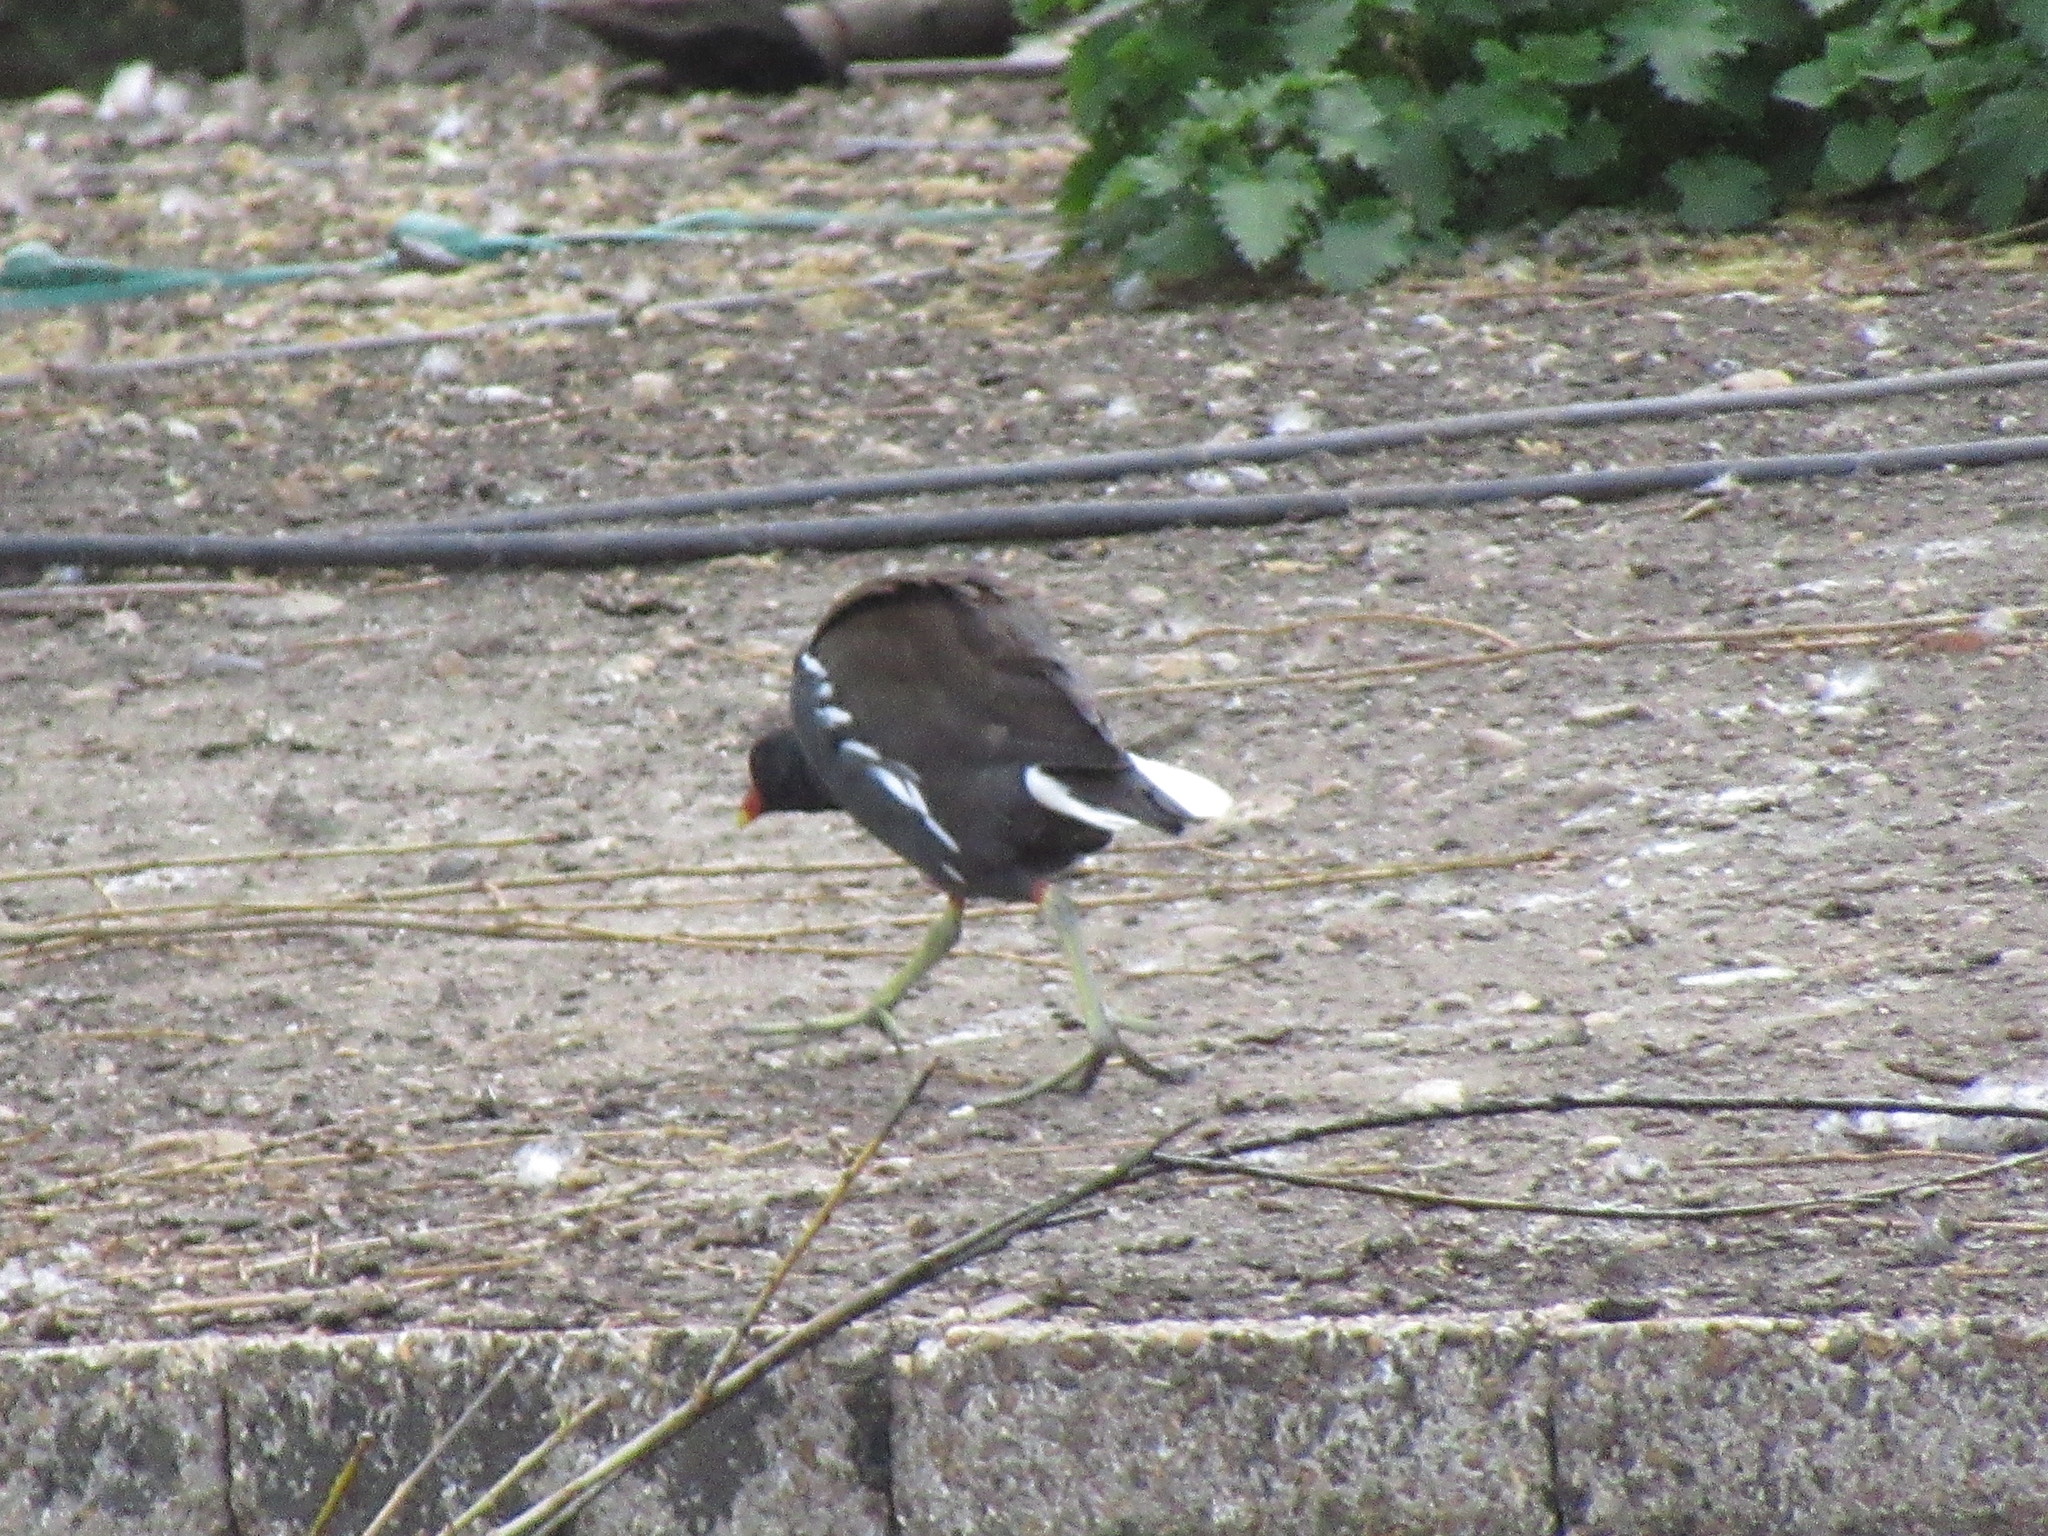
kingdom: Animalia
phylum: Chordata
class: Aves
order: Gruiformes
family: Rallidae
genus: Gallinula
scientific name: Gallinula chloropus
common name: Common moorhen
